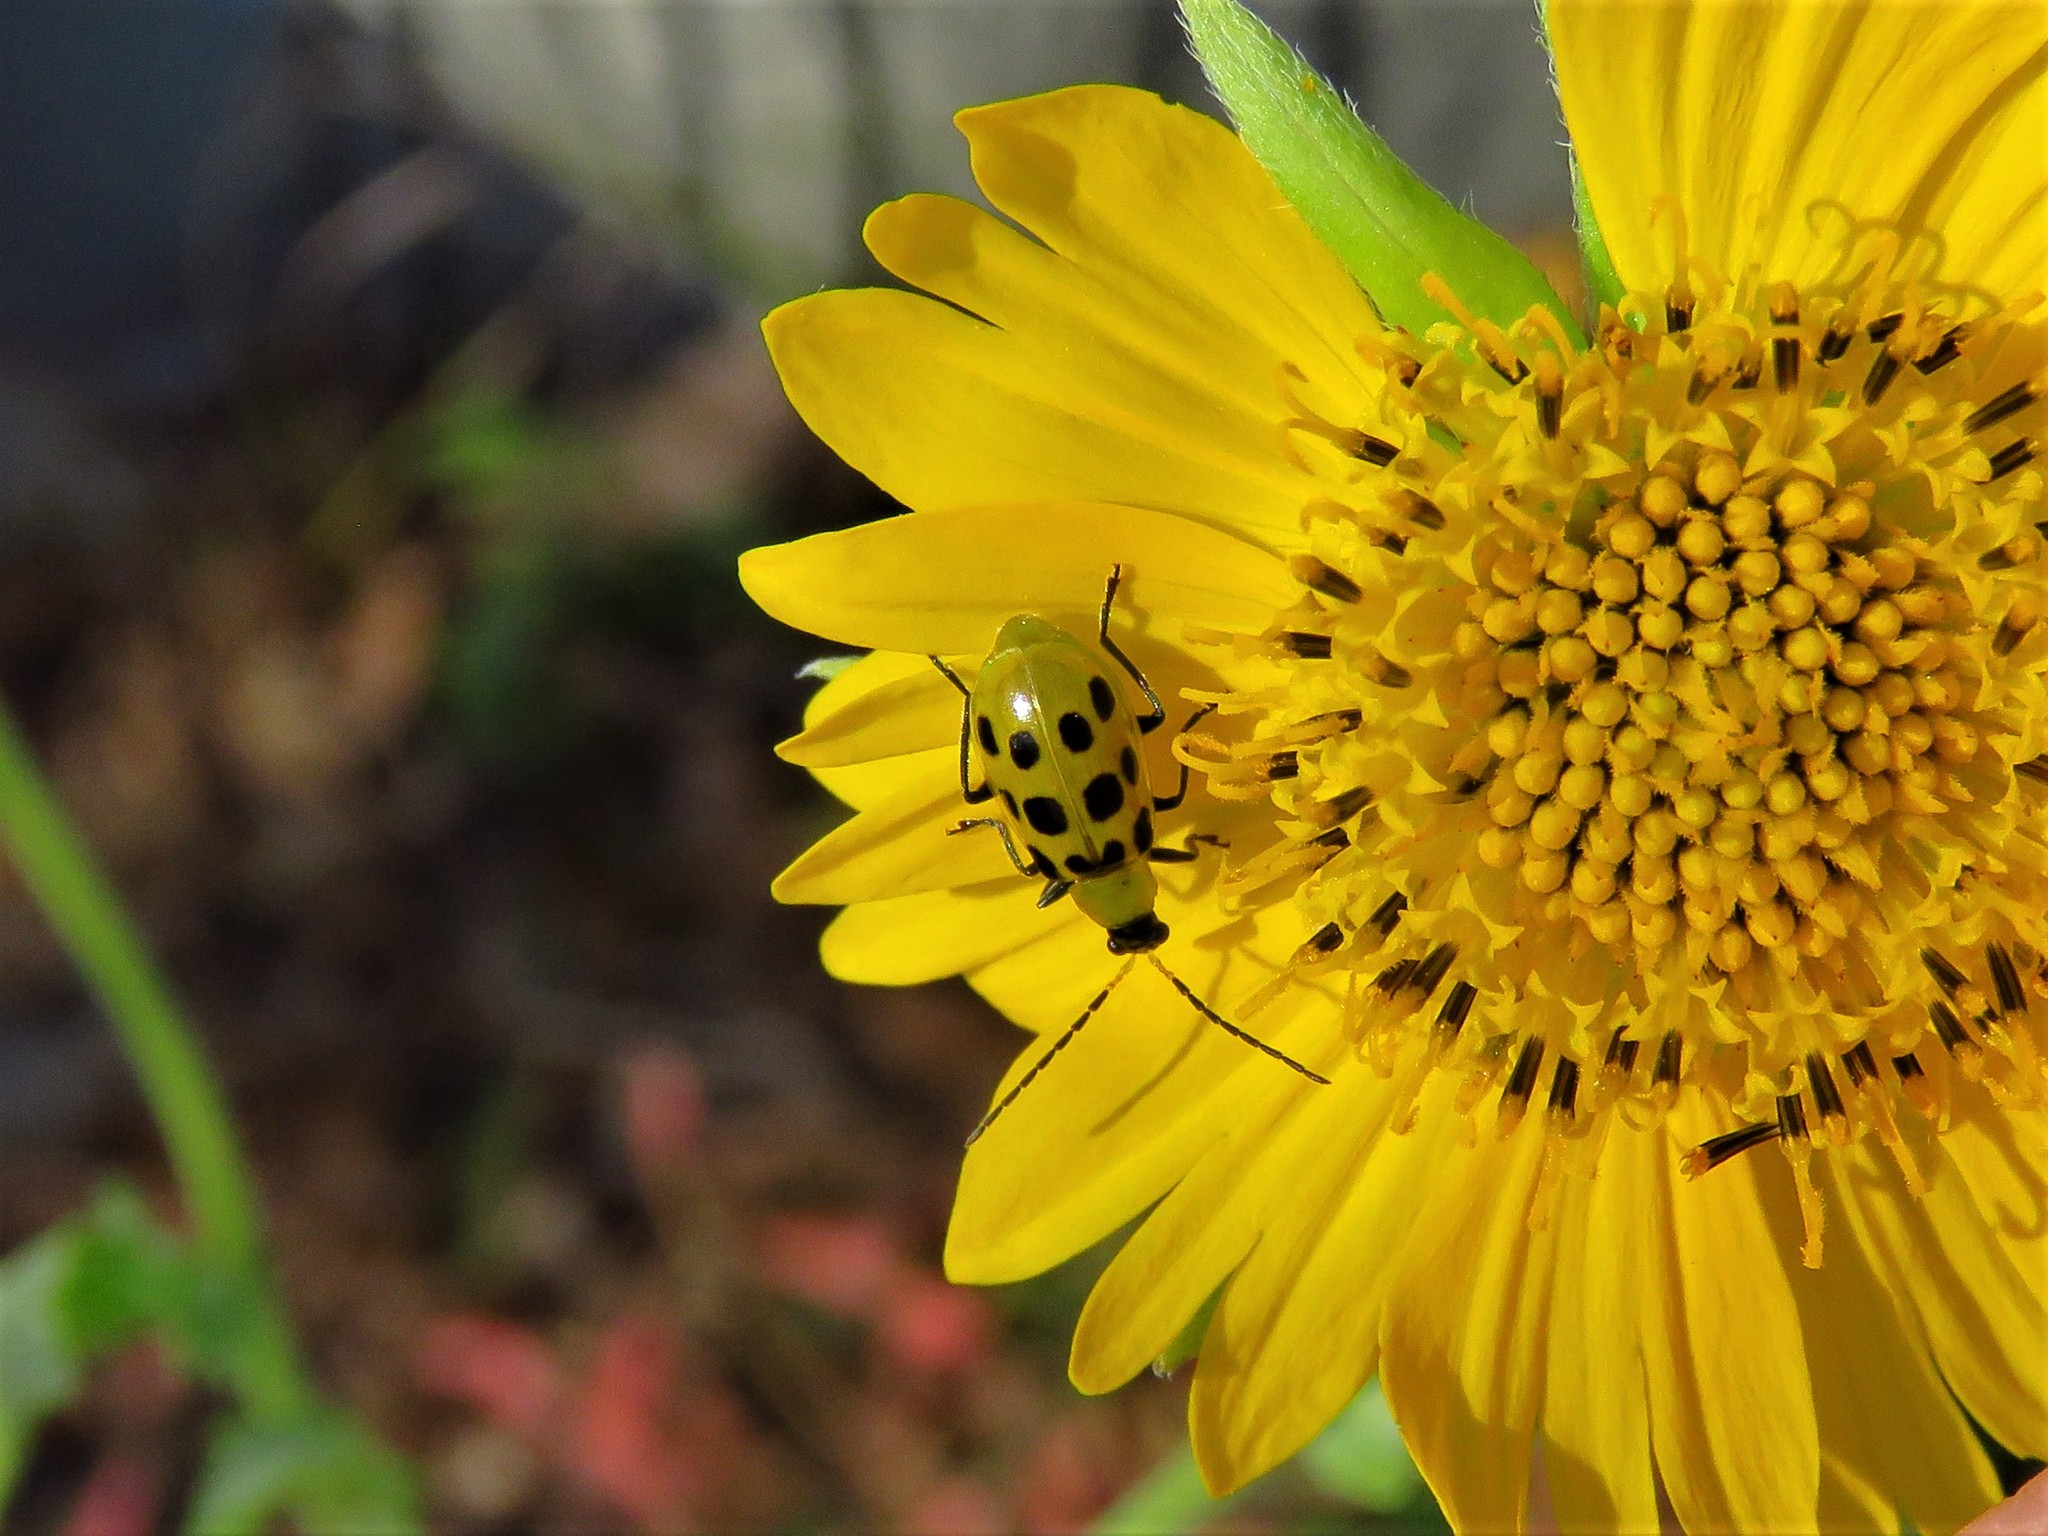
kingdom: Animalia
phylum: Arthropoda
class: Insecta
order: Coleoptera
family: Chrysomelidae
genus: Diabrotica
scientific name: Diabrotica undecimpunctata
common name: Spotted cucumber beetle
